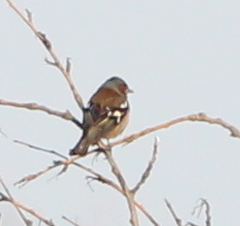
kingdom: Animalia
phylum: Chordata
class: Aves
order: Passeriformes
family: Fringillidae
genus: Fringilla
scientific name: Fringilla coelebs
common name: Common chaffinch
